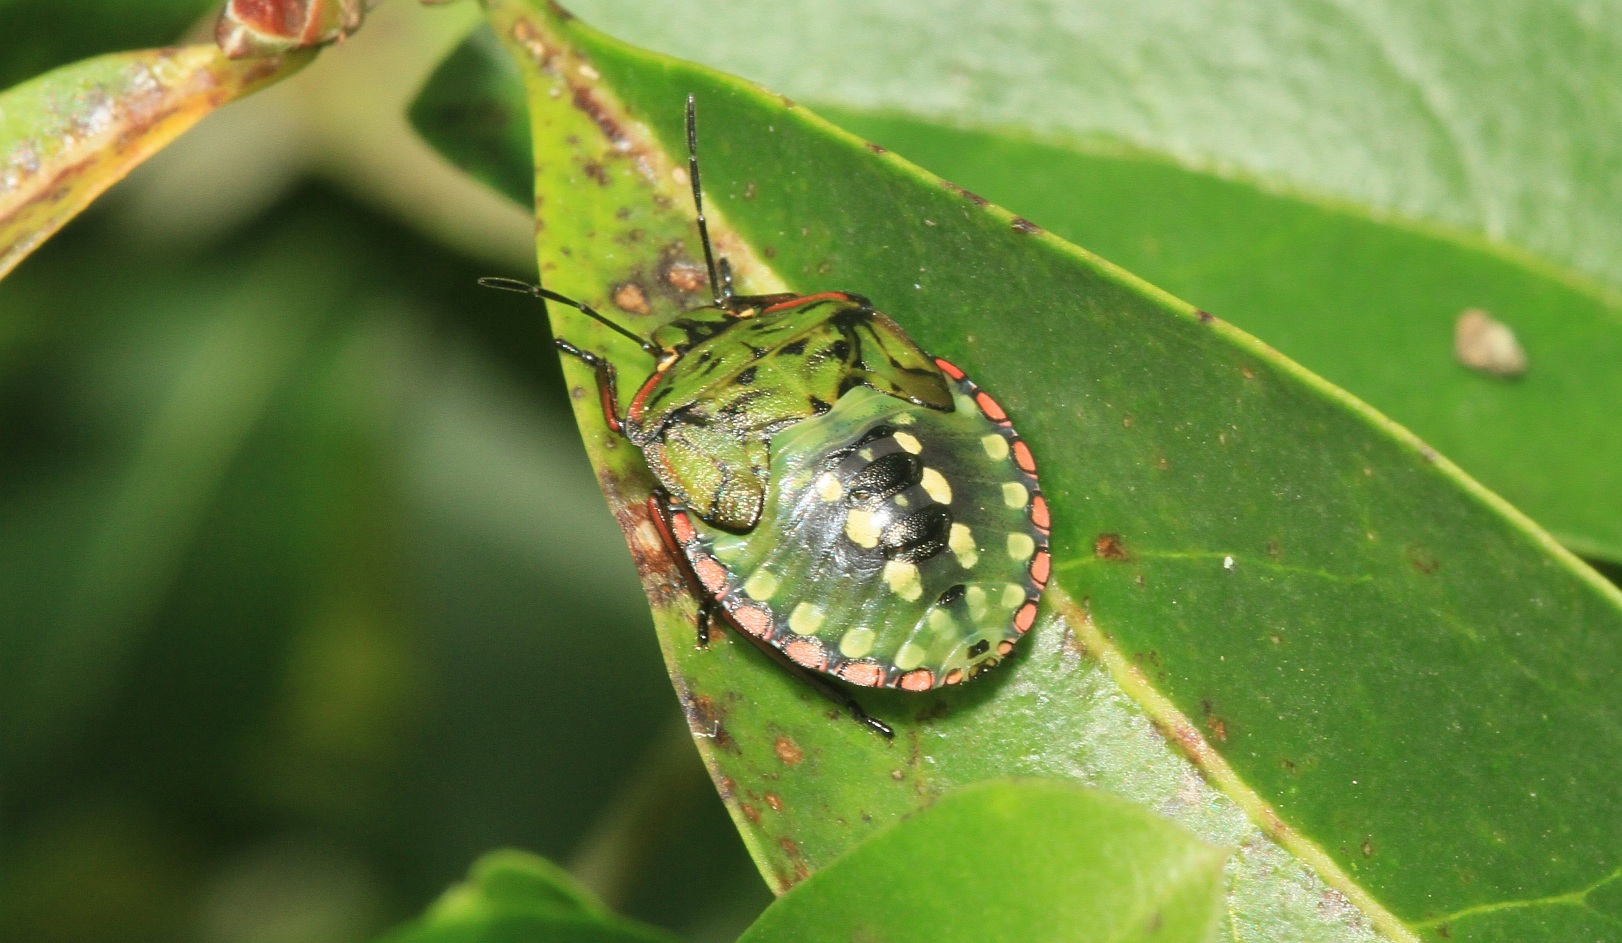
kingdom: Animalia
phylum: Arthropoda
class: Insecta
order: Hemiptera
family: Pentatomidae
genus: Nezara
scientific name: Nezara viridula
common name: Southern green stink bug
